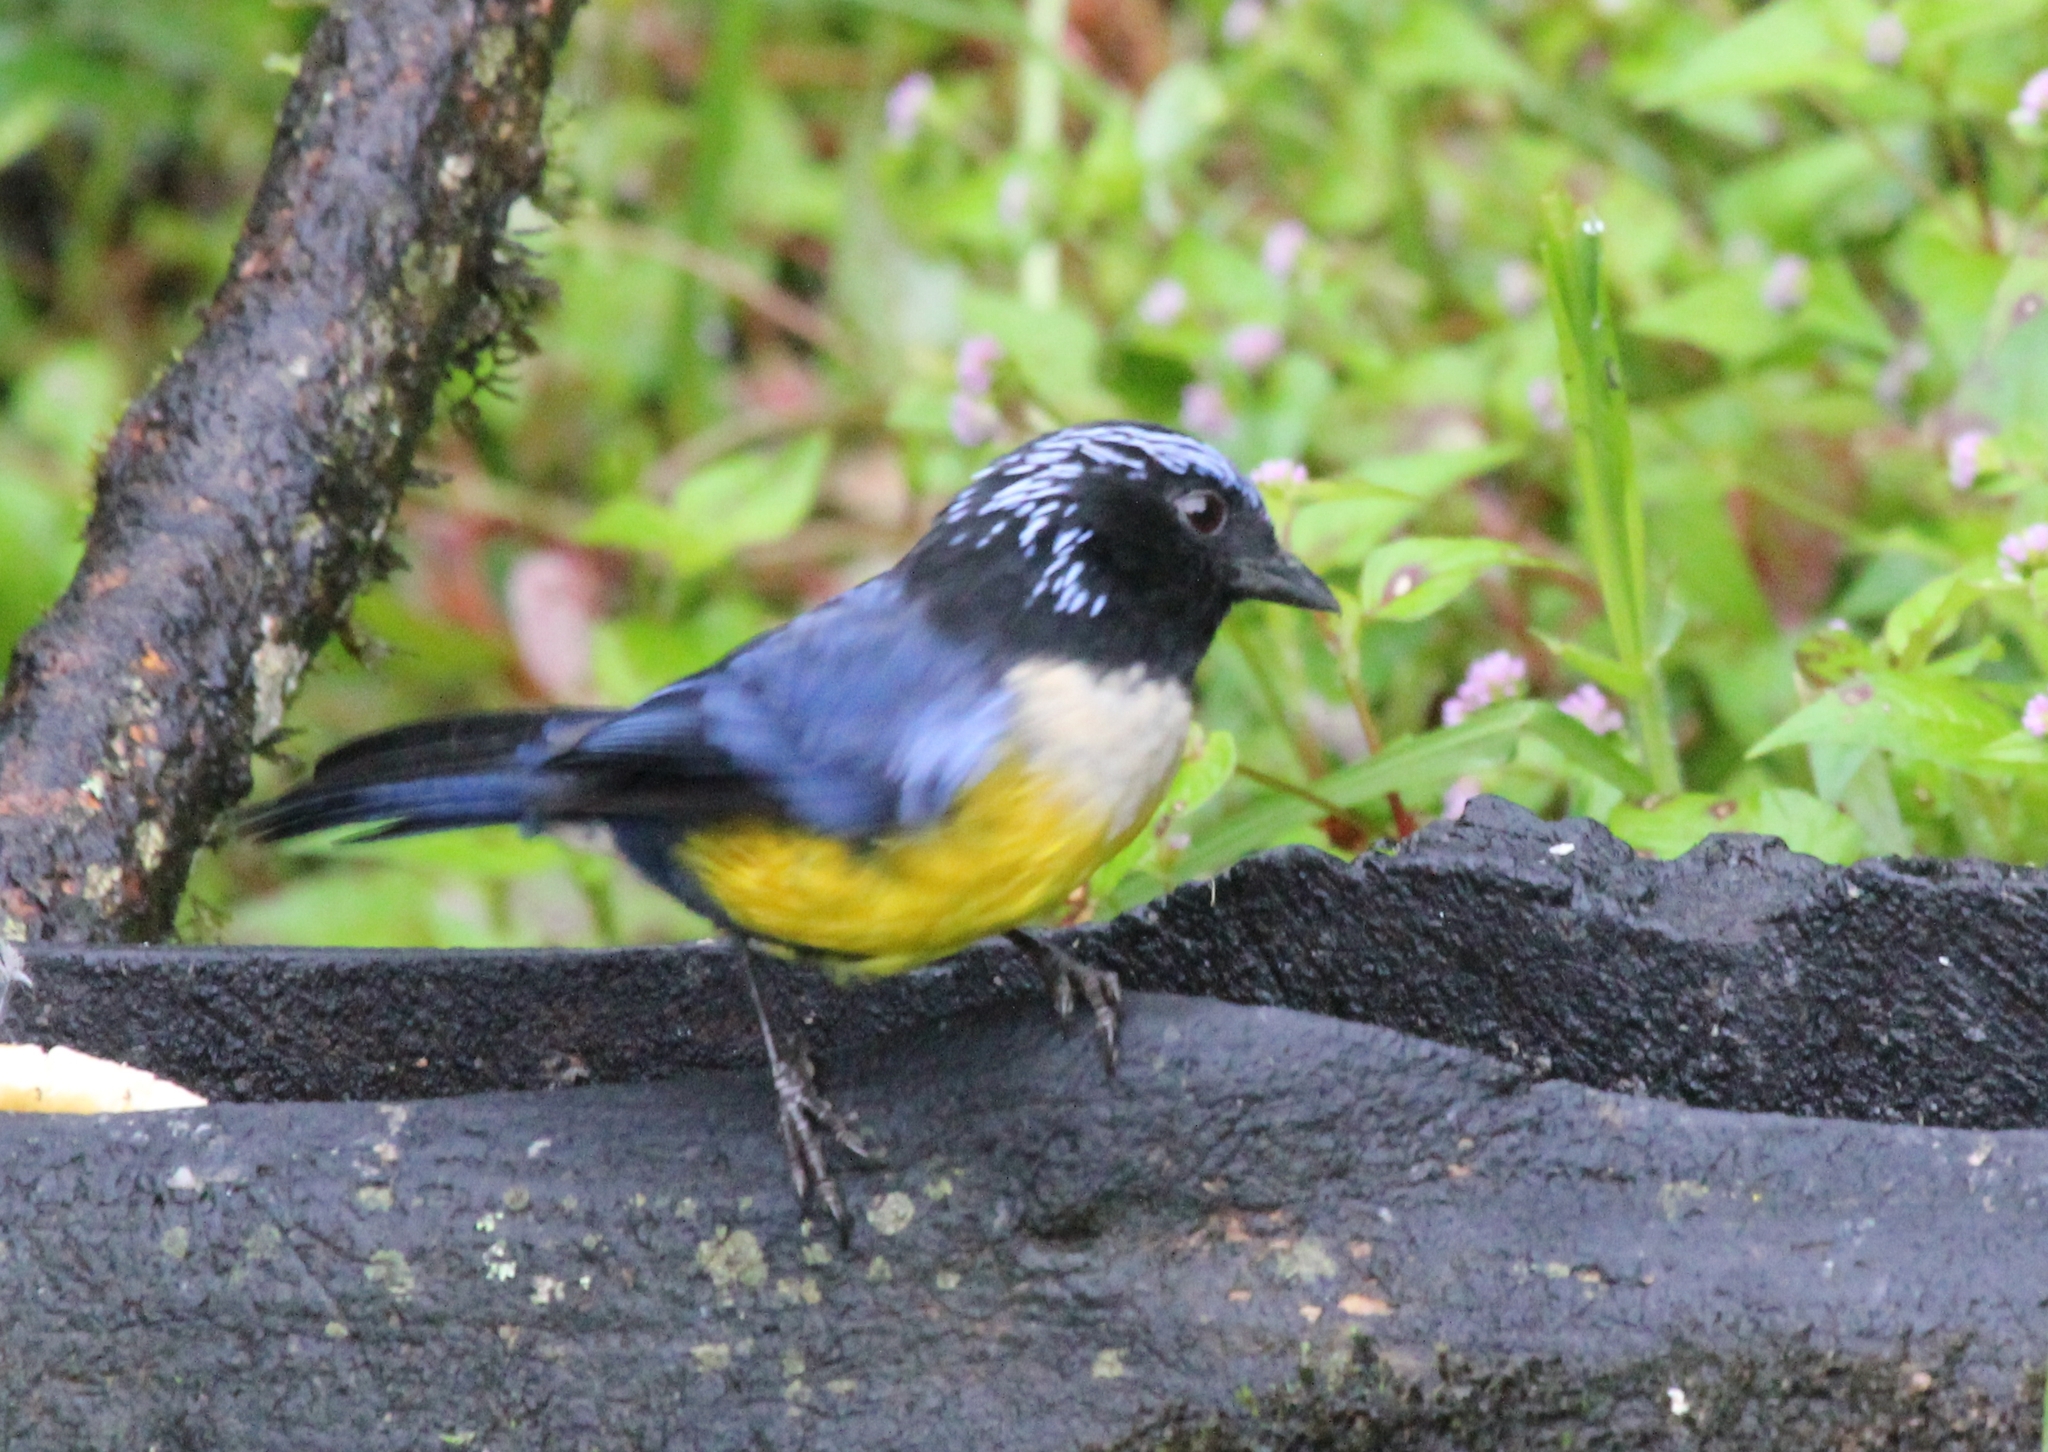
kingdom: Animalia
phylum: Chordata
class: Aves
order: Passeriformes
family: Thraupidae
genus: Dubusia
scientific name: Dubusia taeniata
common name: Buff-breasted mountain tanager
